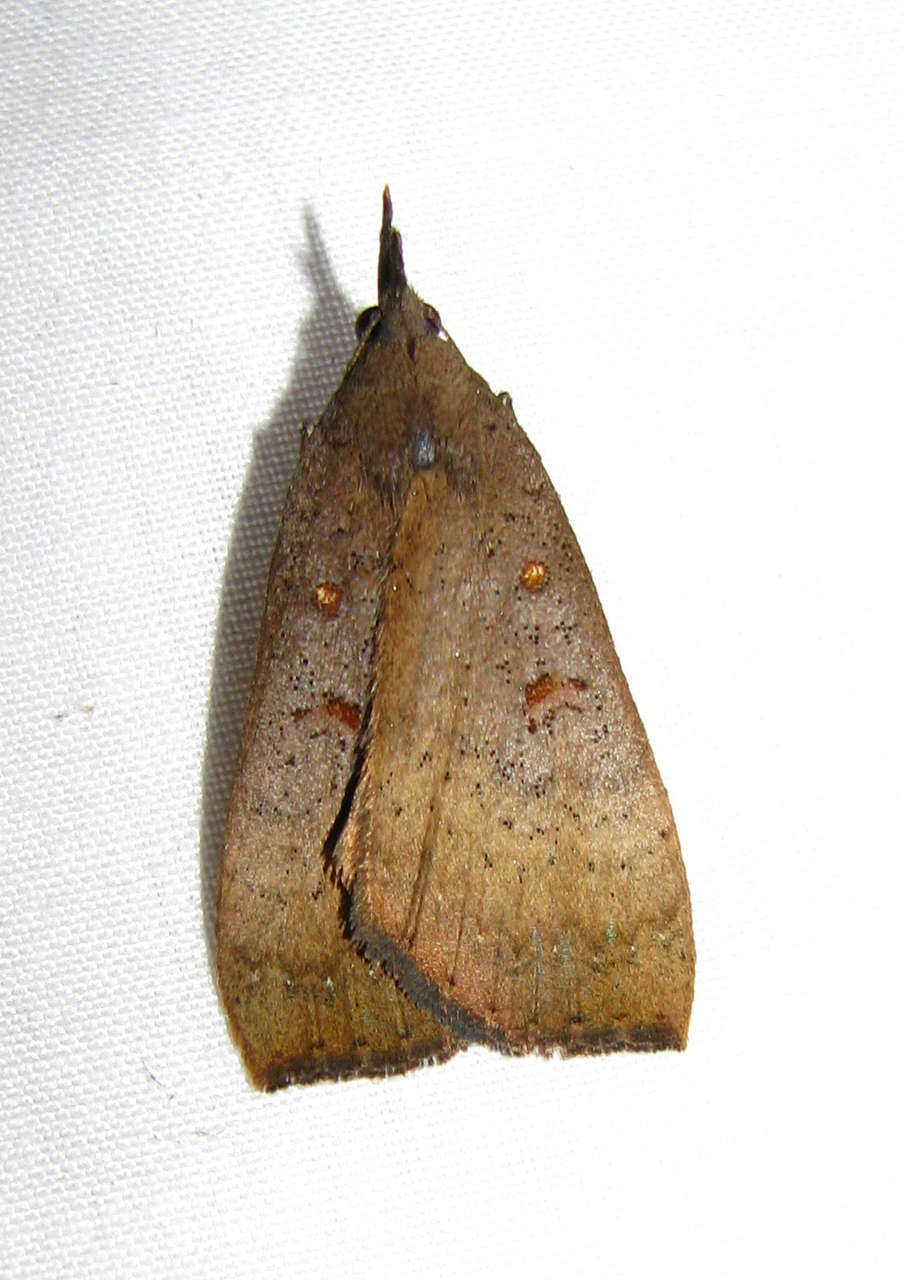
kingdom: Animalia
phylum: Arthropoda
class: Insecta
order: Lepidoptera
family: Erebidae
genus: Rhapsa
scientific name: Rhapsa suscitatalis
